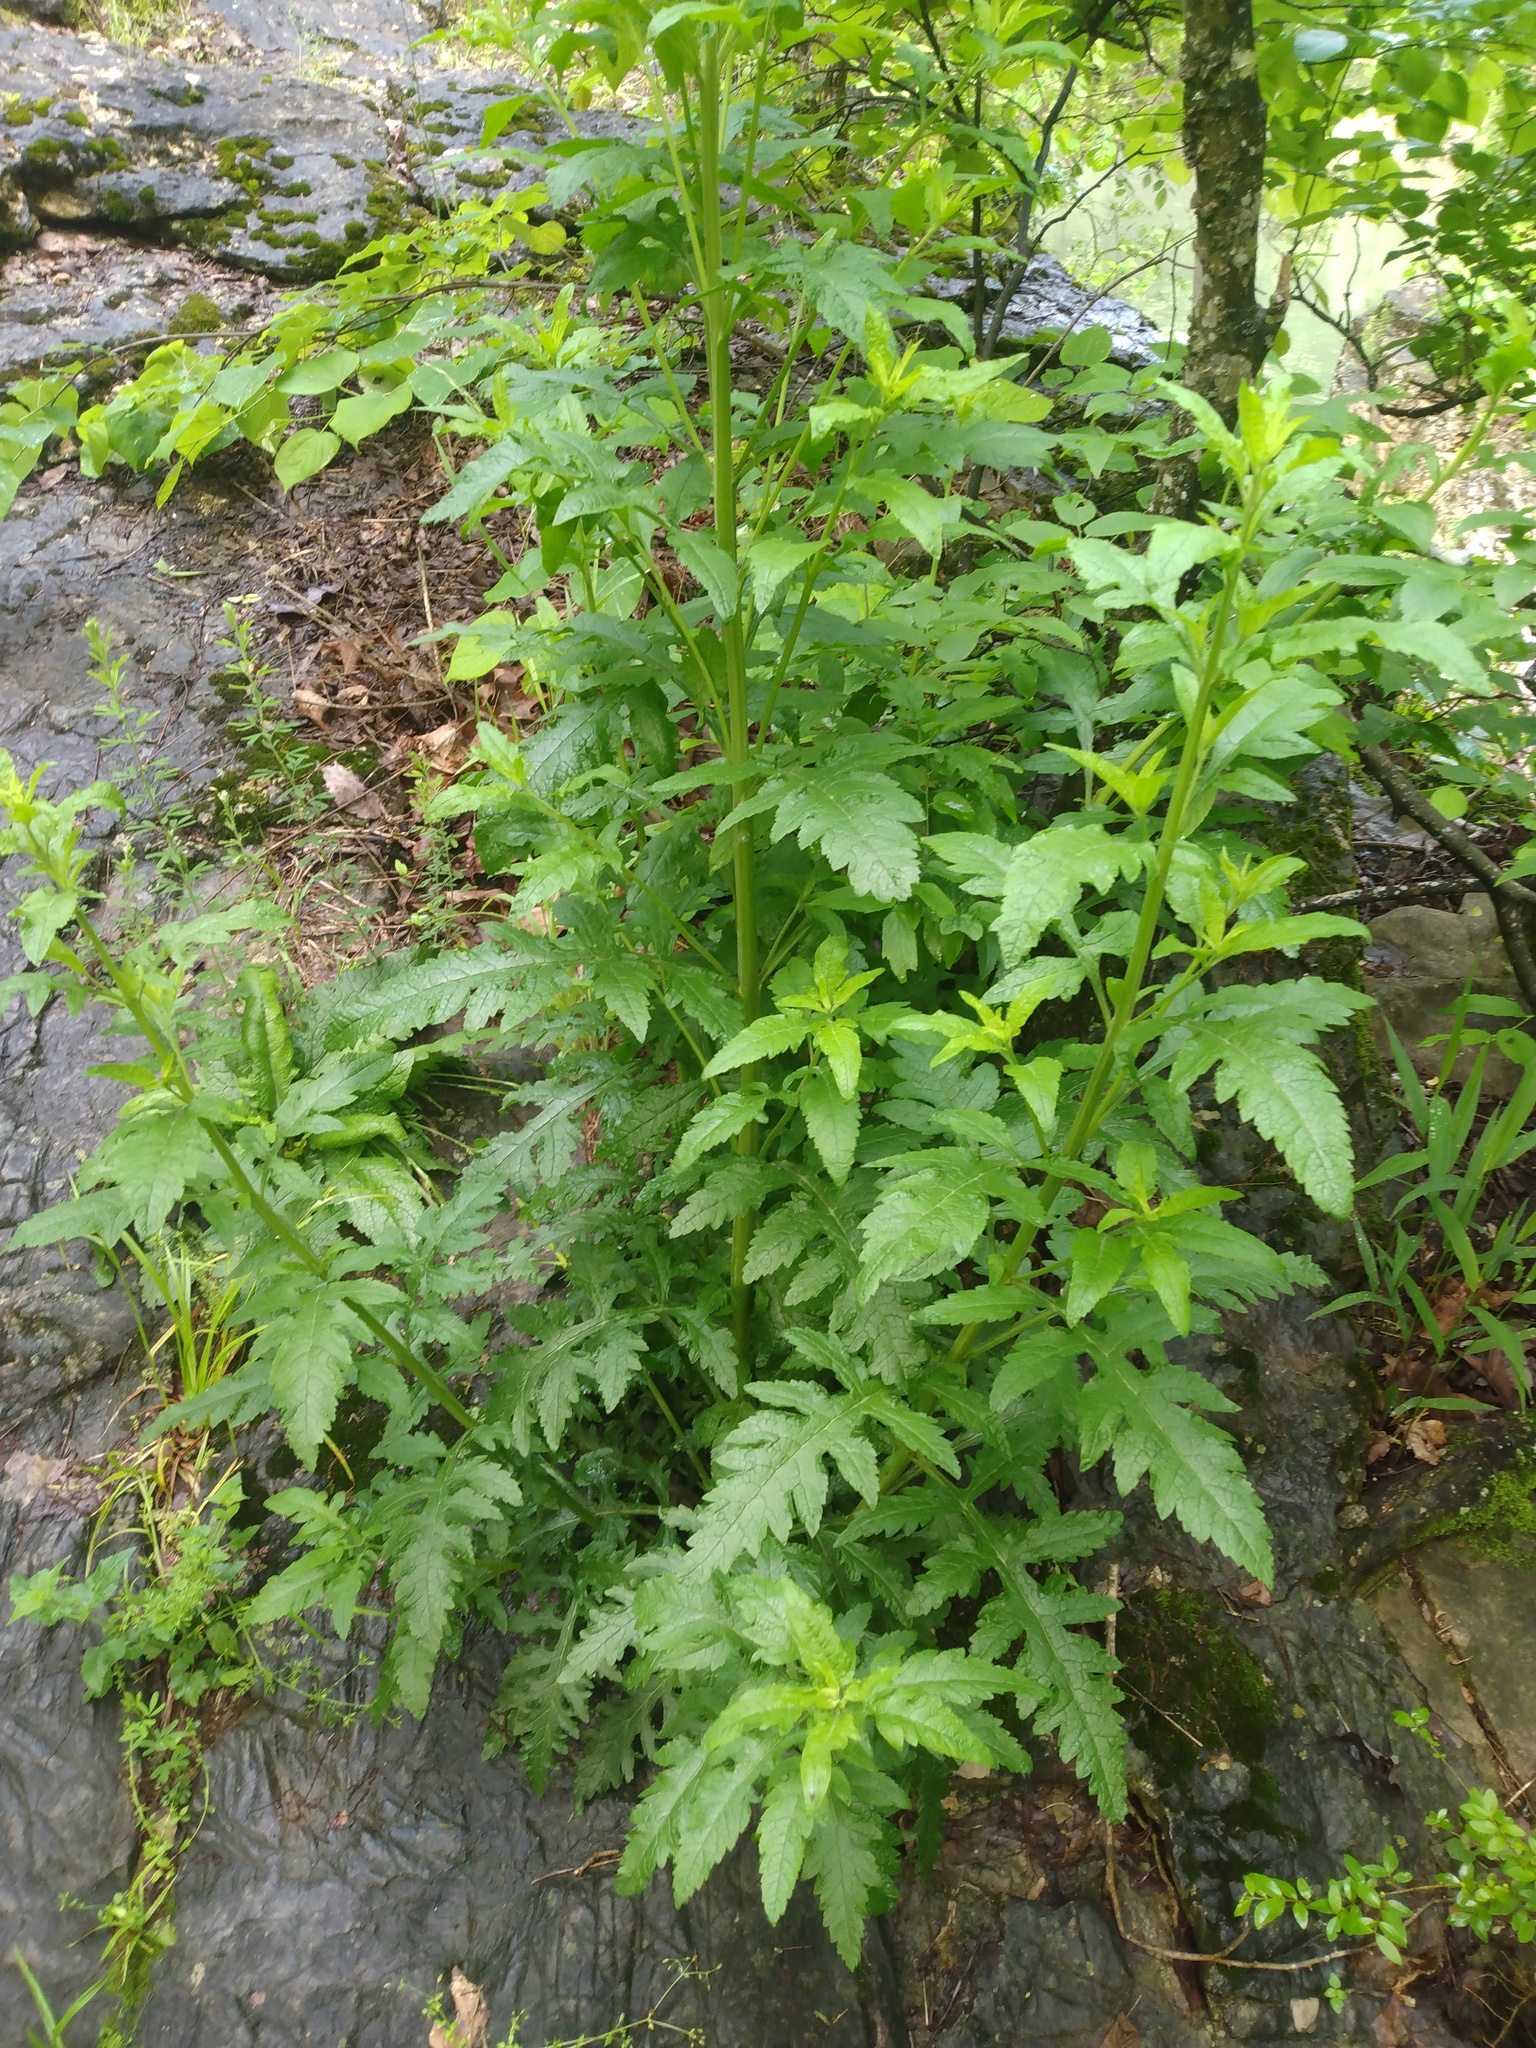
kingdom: Plantae
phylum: Tracheophyta
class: Magnoliopsida
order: Lamiales
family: Orobanchaceae
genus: Dasistoma
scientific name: Dasistoma macrophyllum
